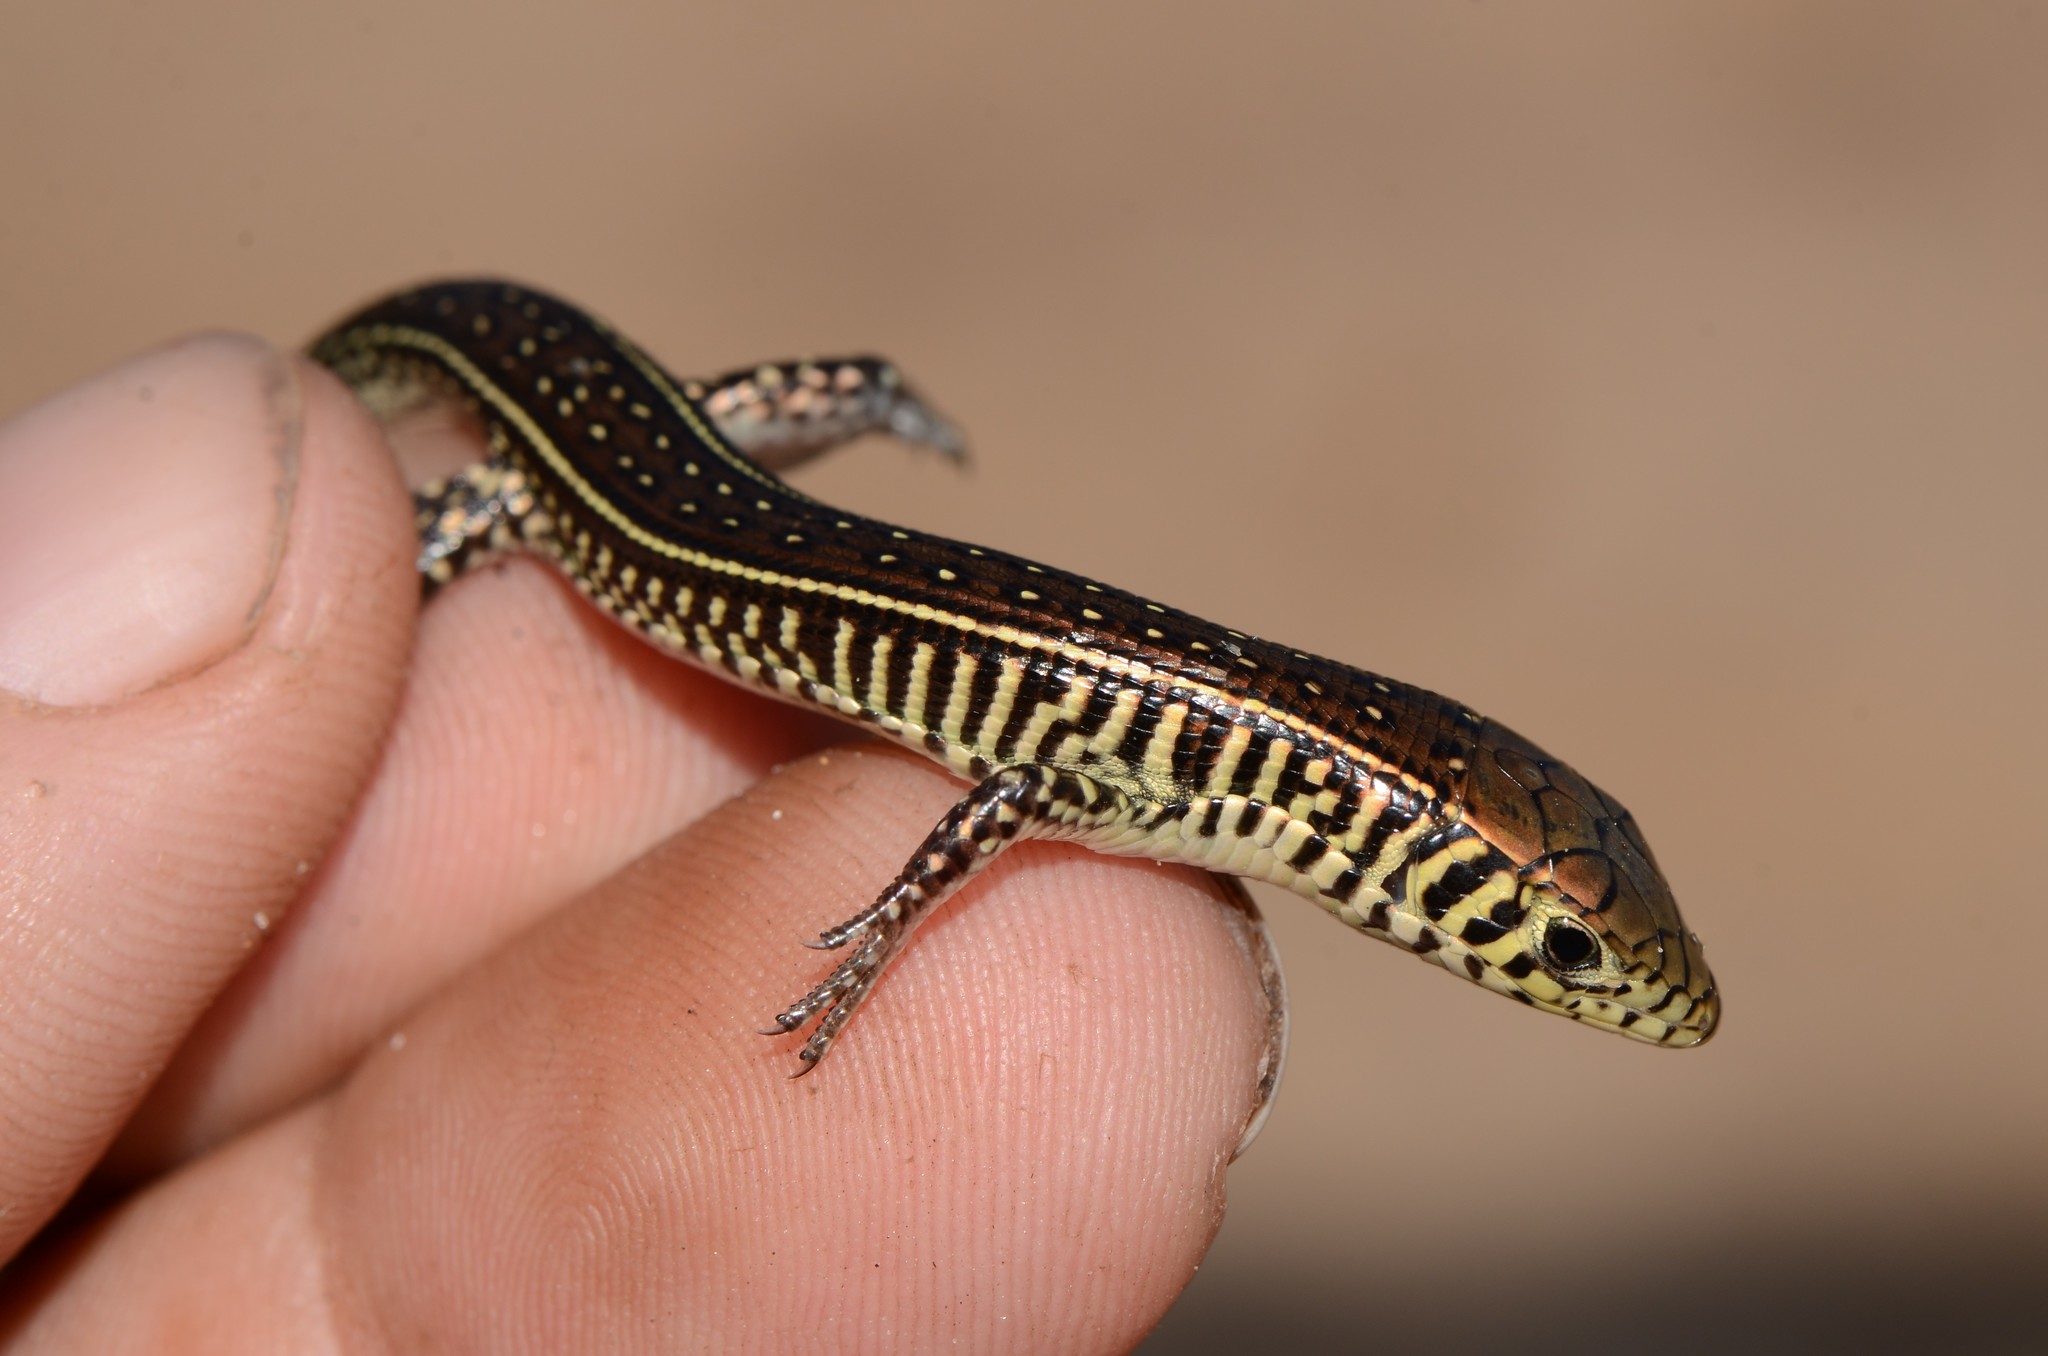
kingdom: Animalia
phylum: Chordata
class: Squamata
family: Gerrhosauridae
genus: Gerrhosaurus
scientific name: Gerrhosaurus flavigularis
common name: Yellow-throated plated lizard
